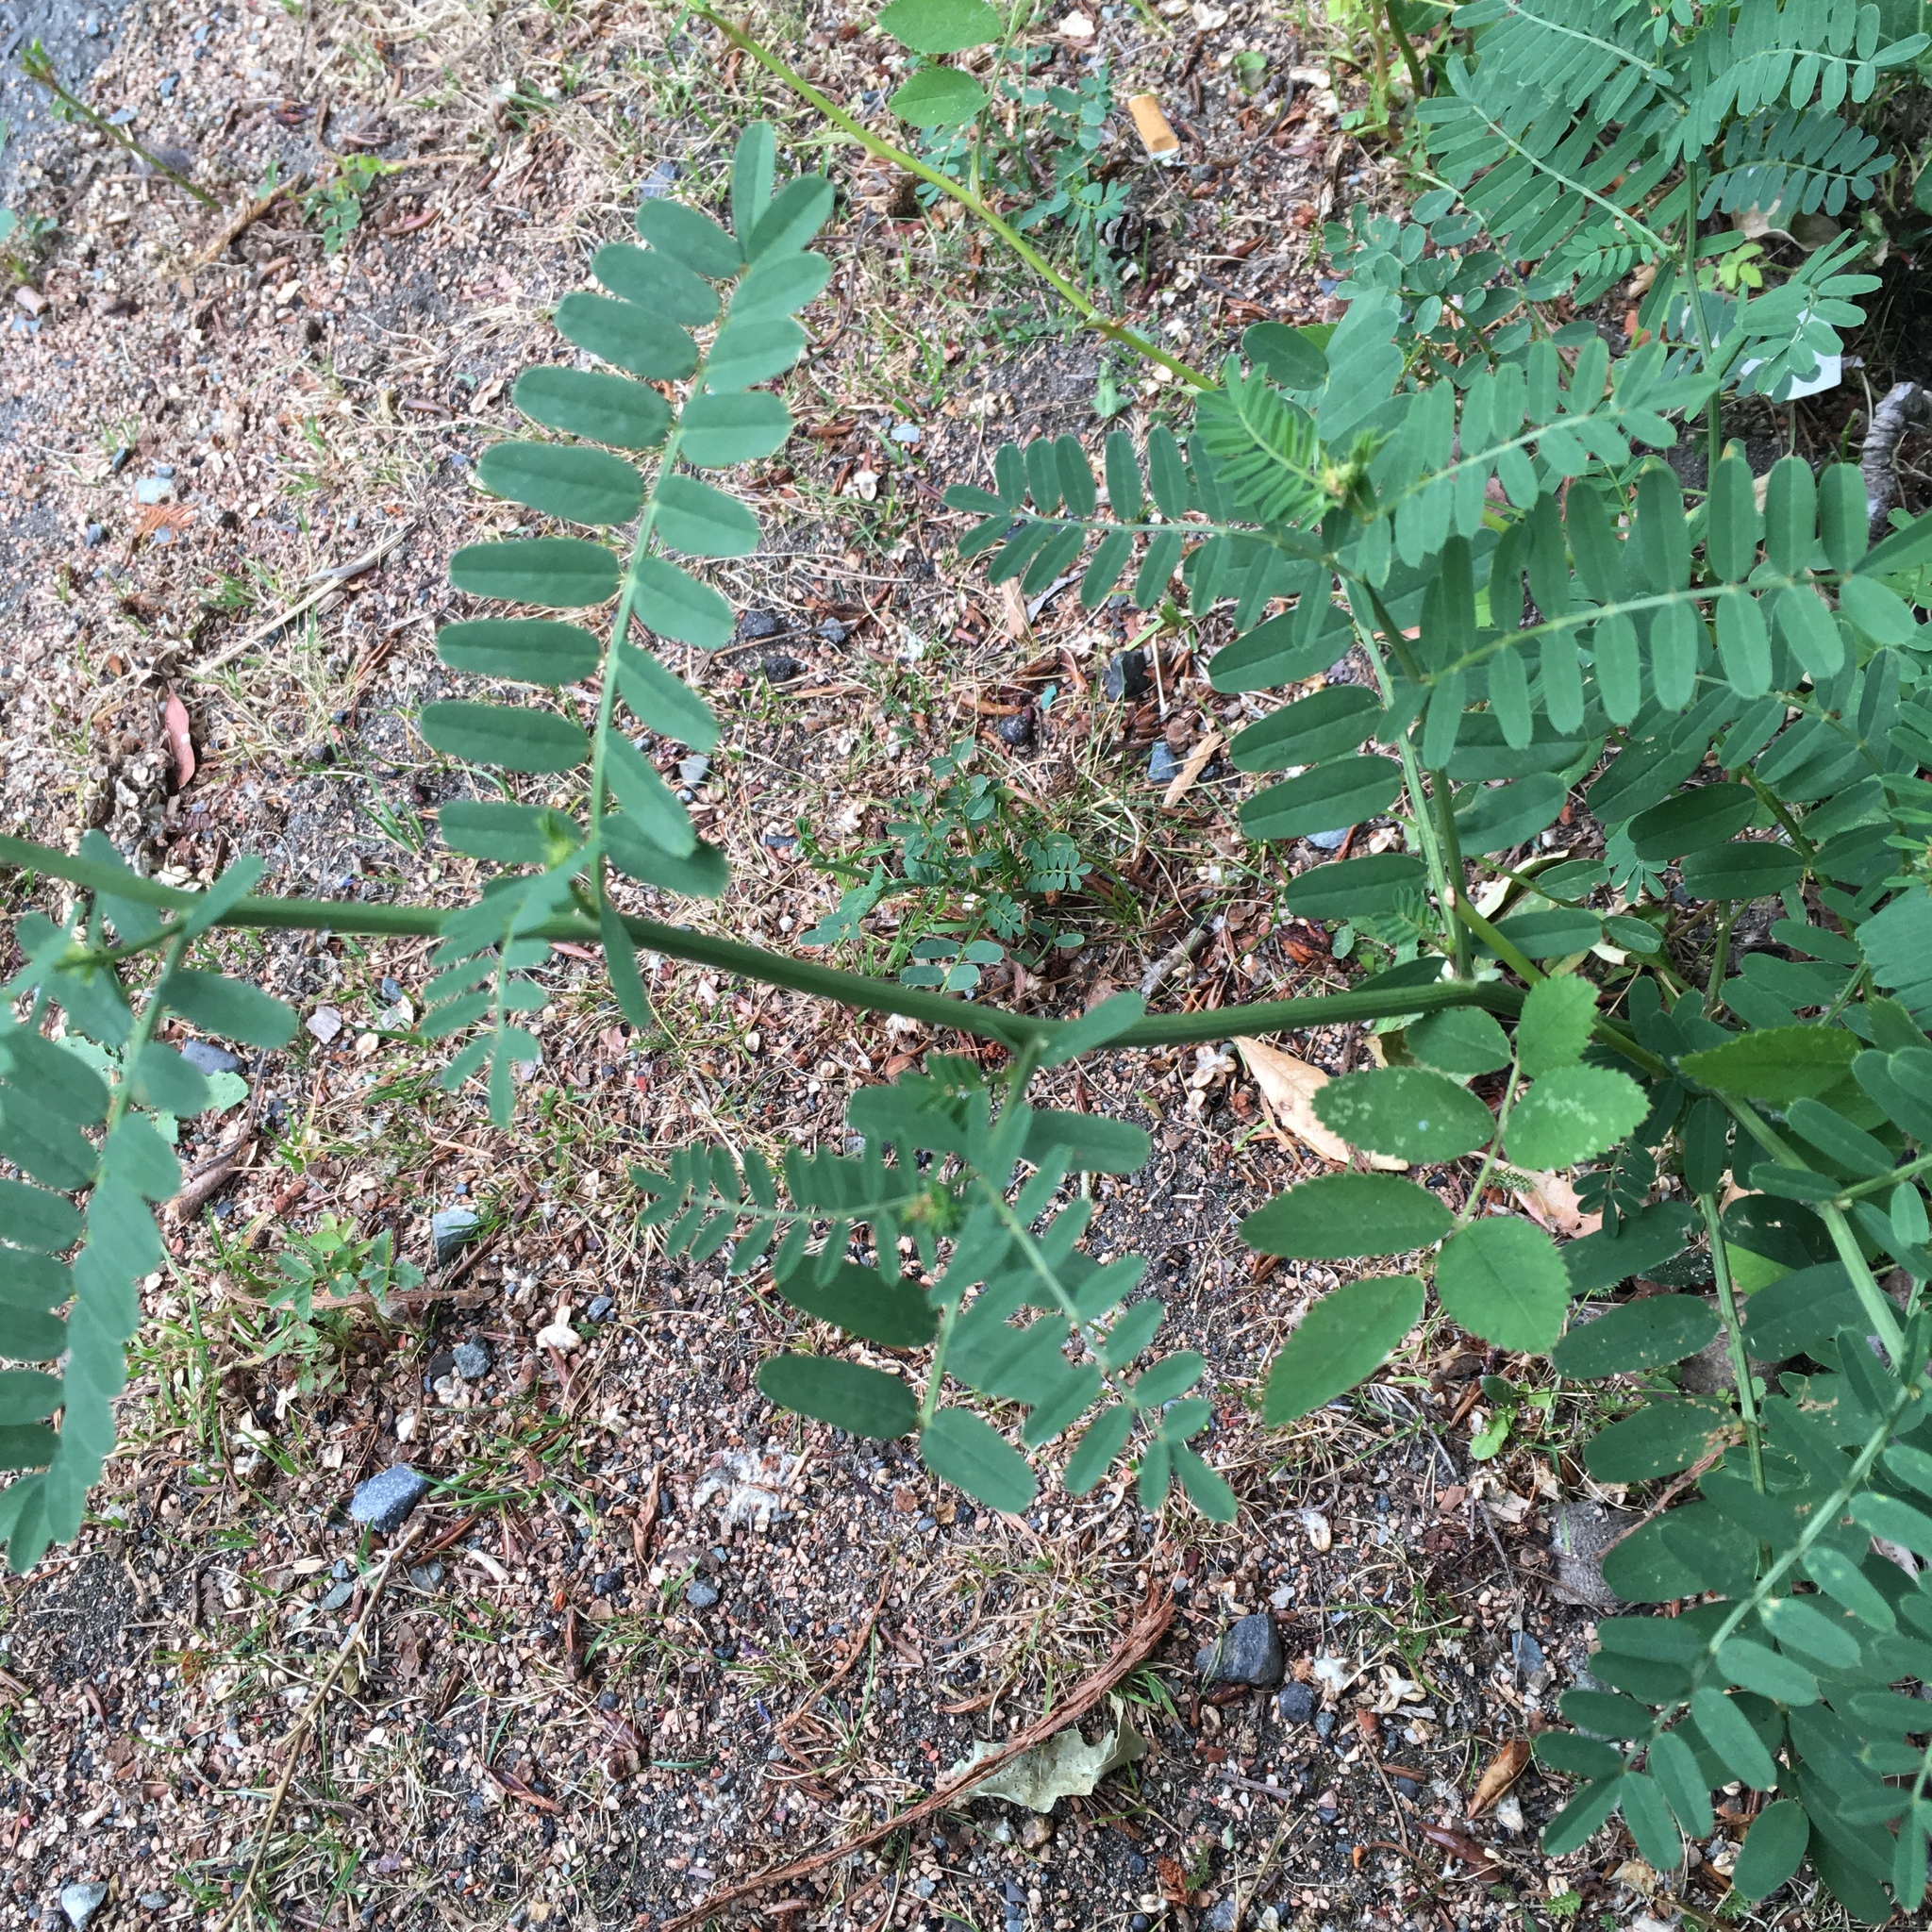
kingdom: Plantae
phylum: Tracheophyta
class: Magnoliopsida
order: Fabales
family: Fabaceae
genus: Coronilla
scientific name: Coronilla varia
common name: Crownvetch
